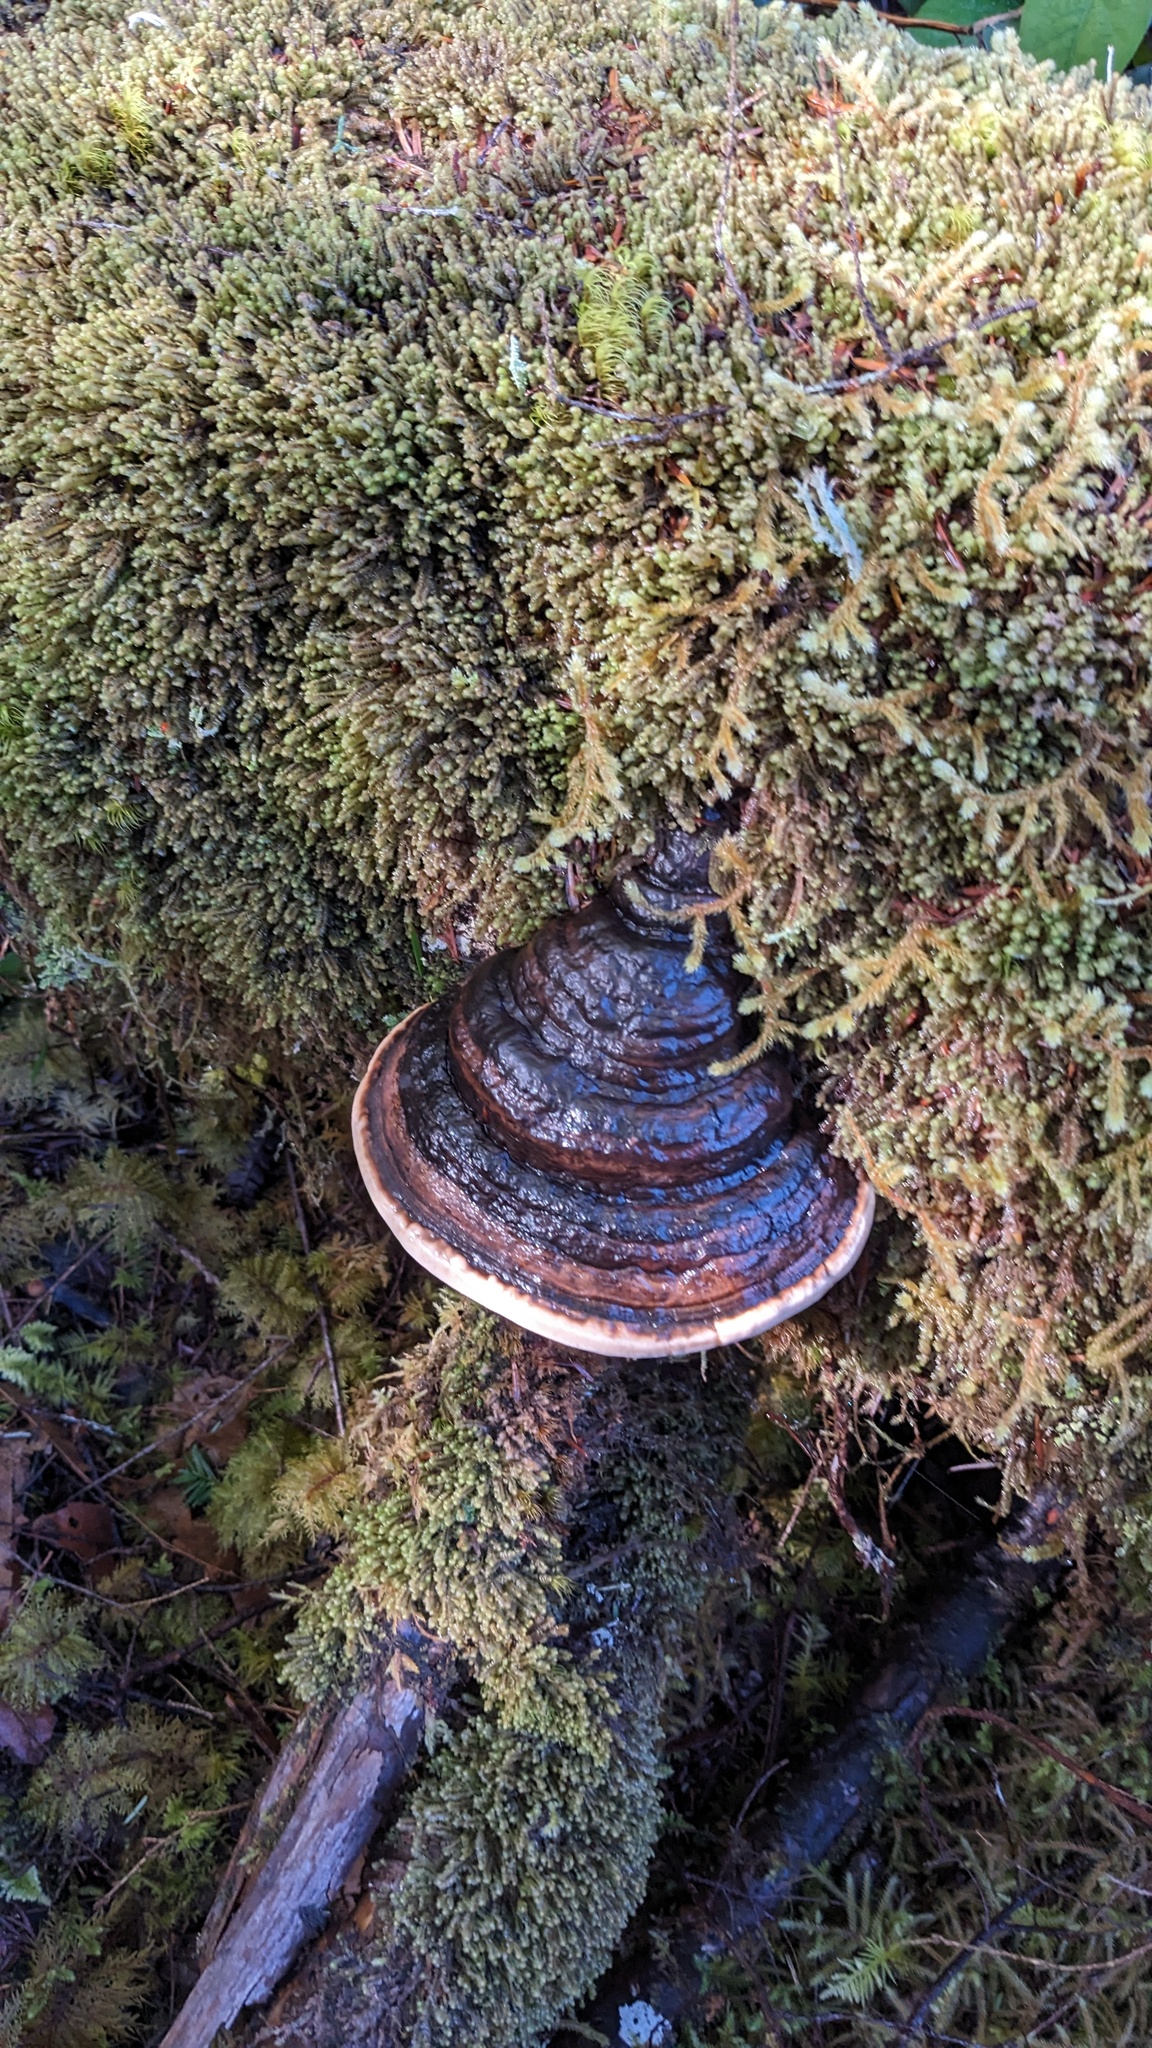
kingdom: Fungi
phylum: Basidiomycota
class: Agaricomycetes
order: Polyporales
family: Fomitopsidaceae
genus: Fomitopsis
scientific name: Fomitopsis ochracea
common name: American brown fomitopsis
